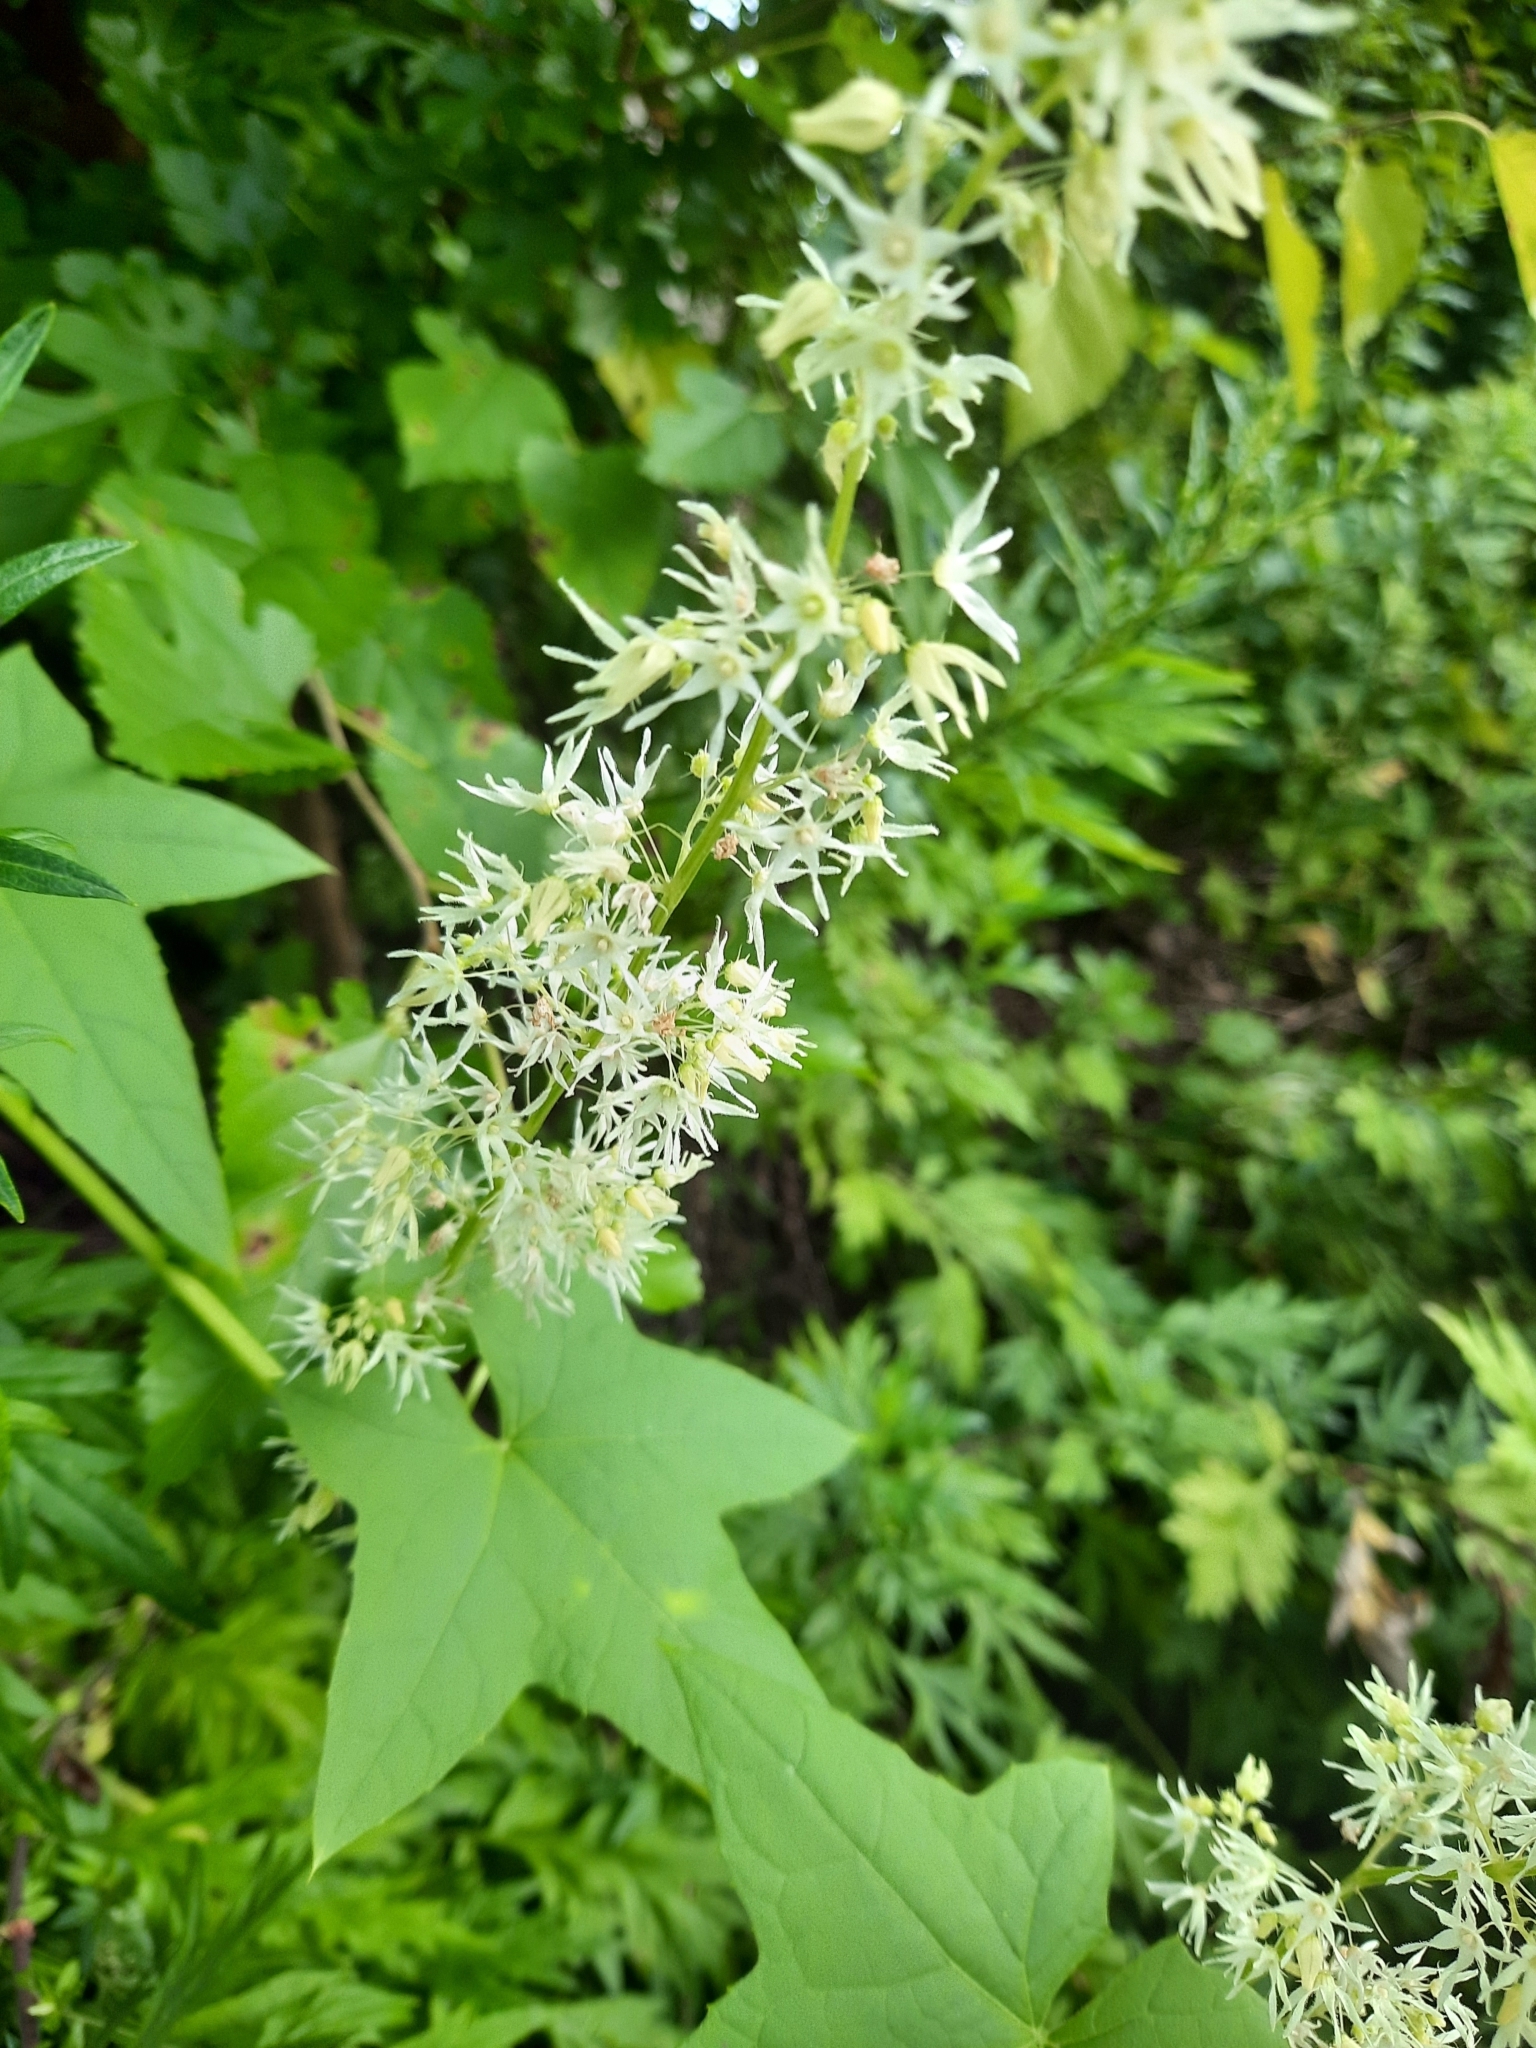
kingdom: Plantae
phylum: Tracheophyta
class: Magnoliopsida
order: Cucurbitales
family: Cucurbitaceae
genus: Echinocystis
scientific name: Echinocystis lobata
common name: Wild cucumber
